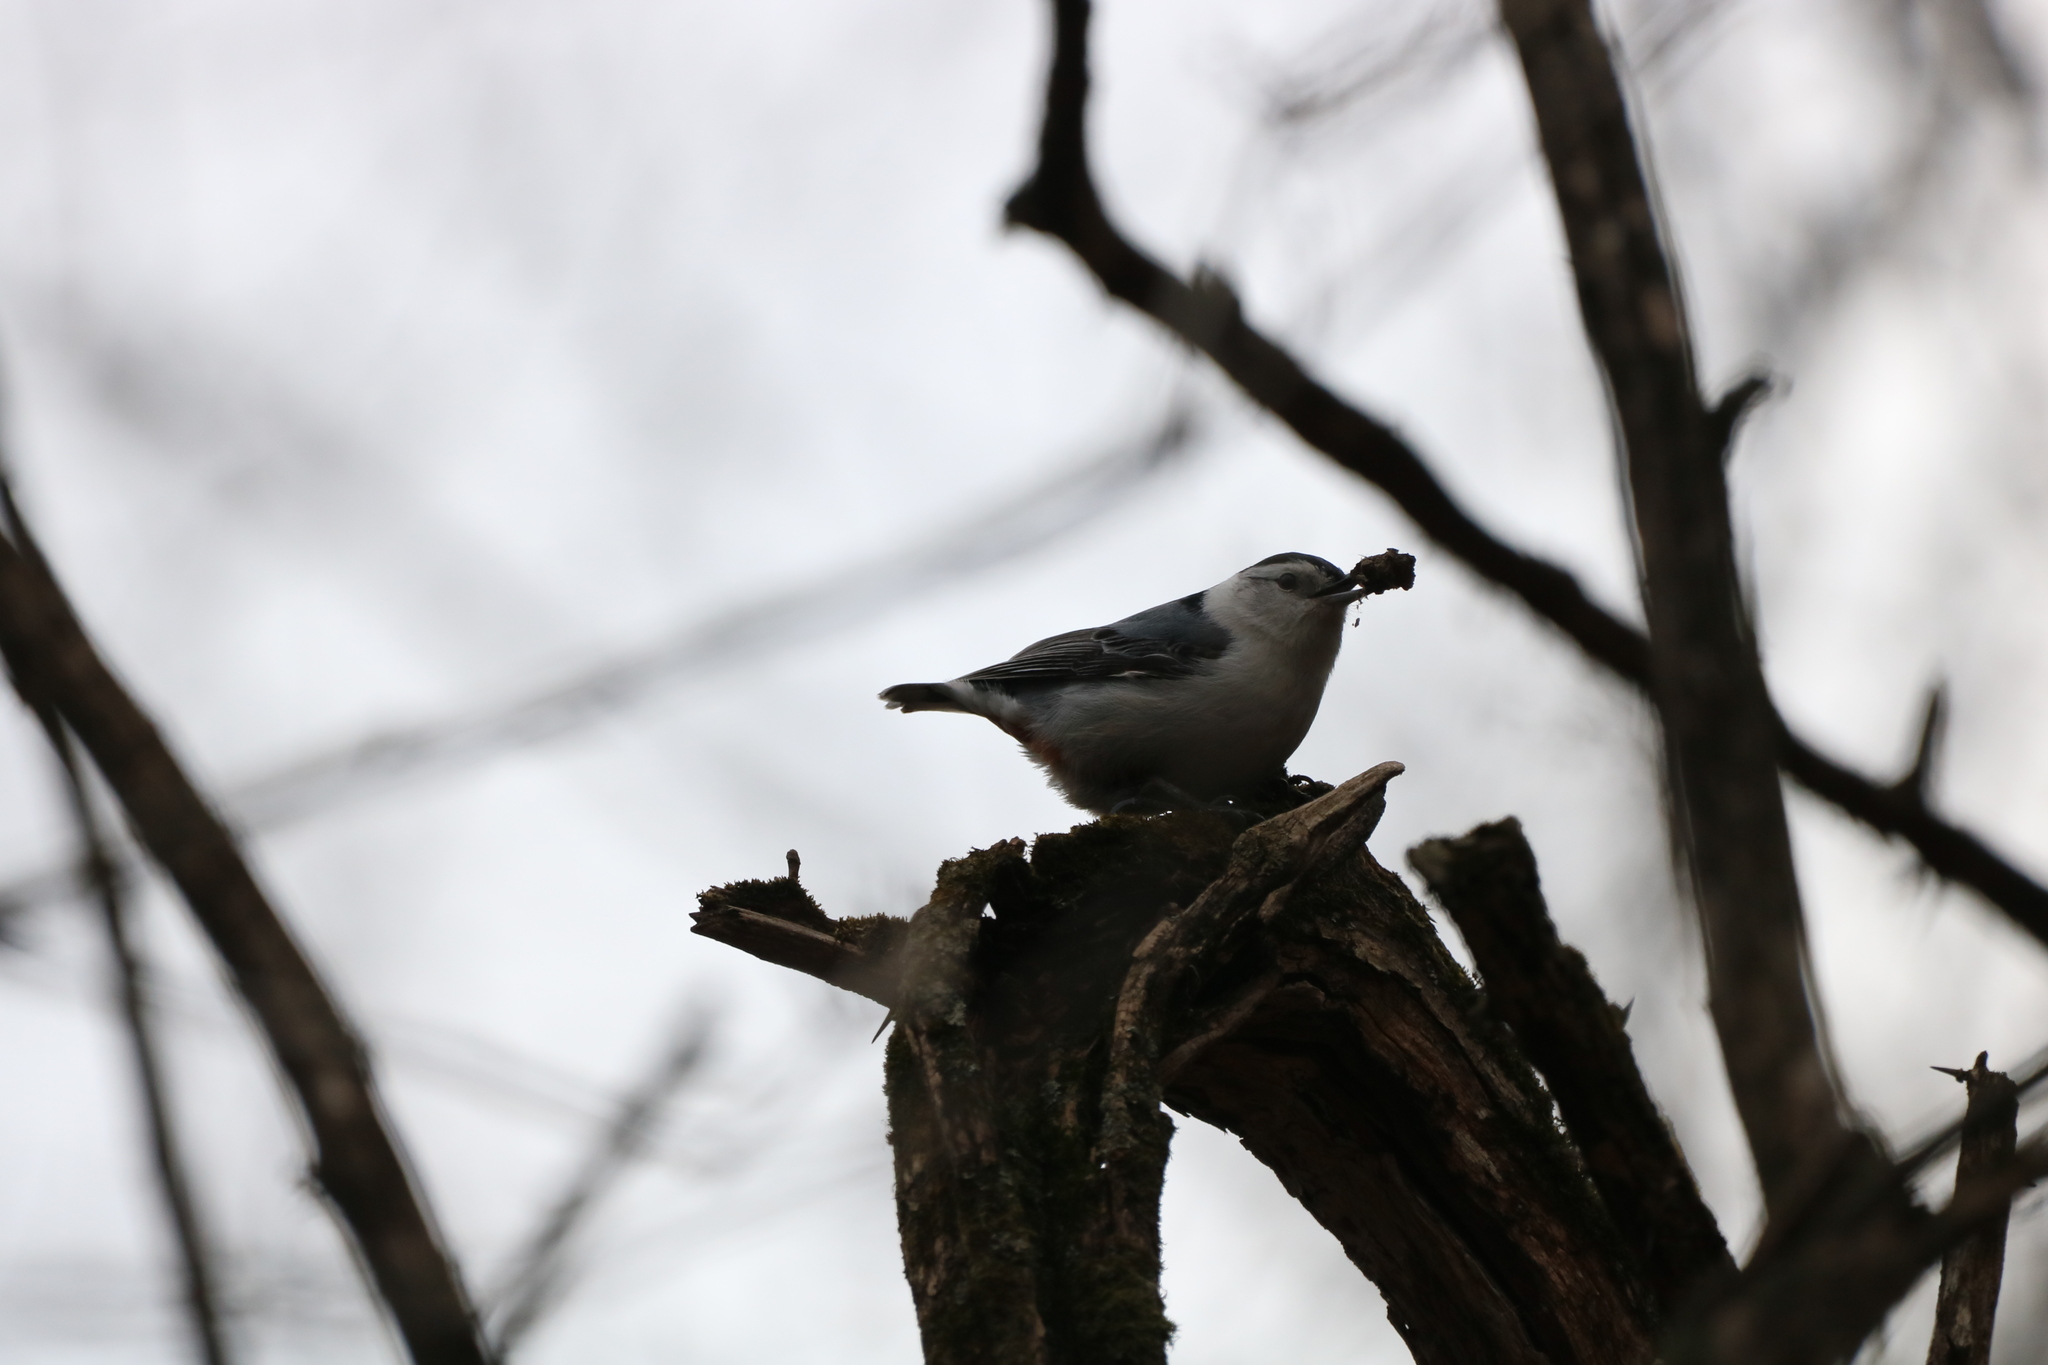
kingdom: Animalia
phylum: Chordata
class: Aves
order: Passeriformes
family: Sittidae
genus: Sitta
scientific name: Sitta carolinensis
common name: White-breasted nuthatch
